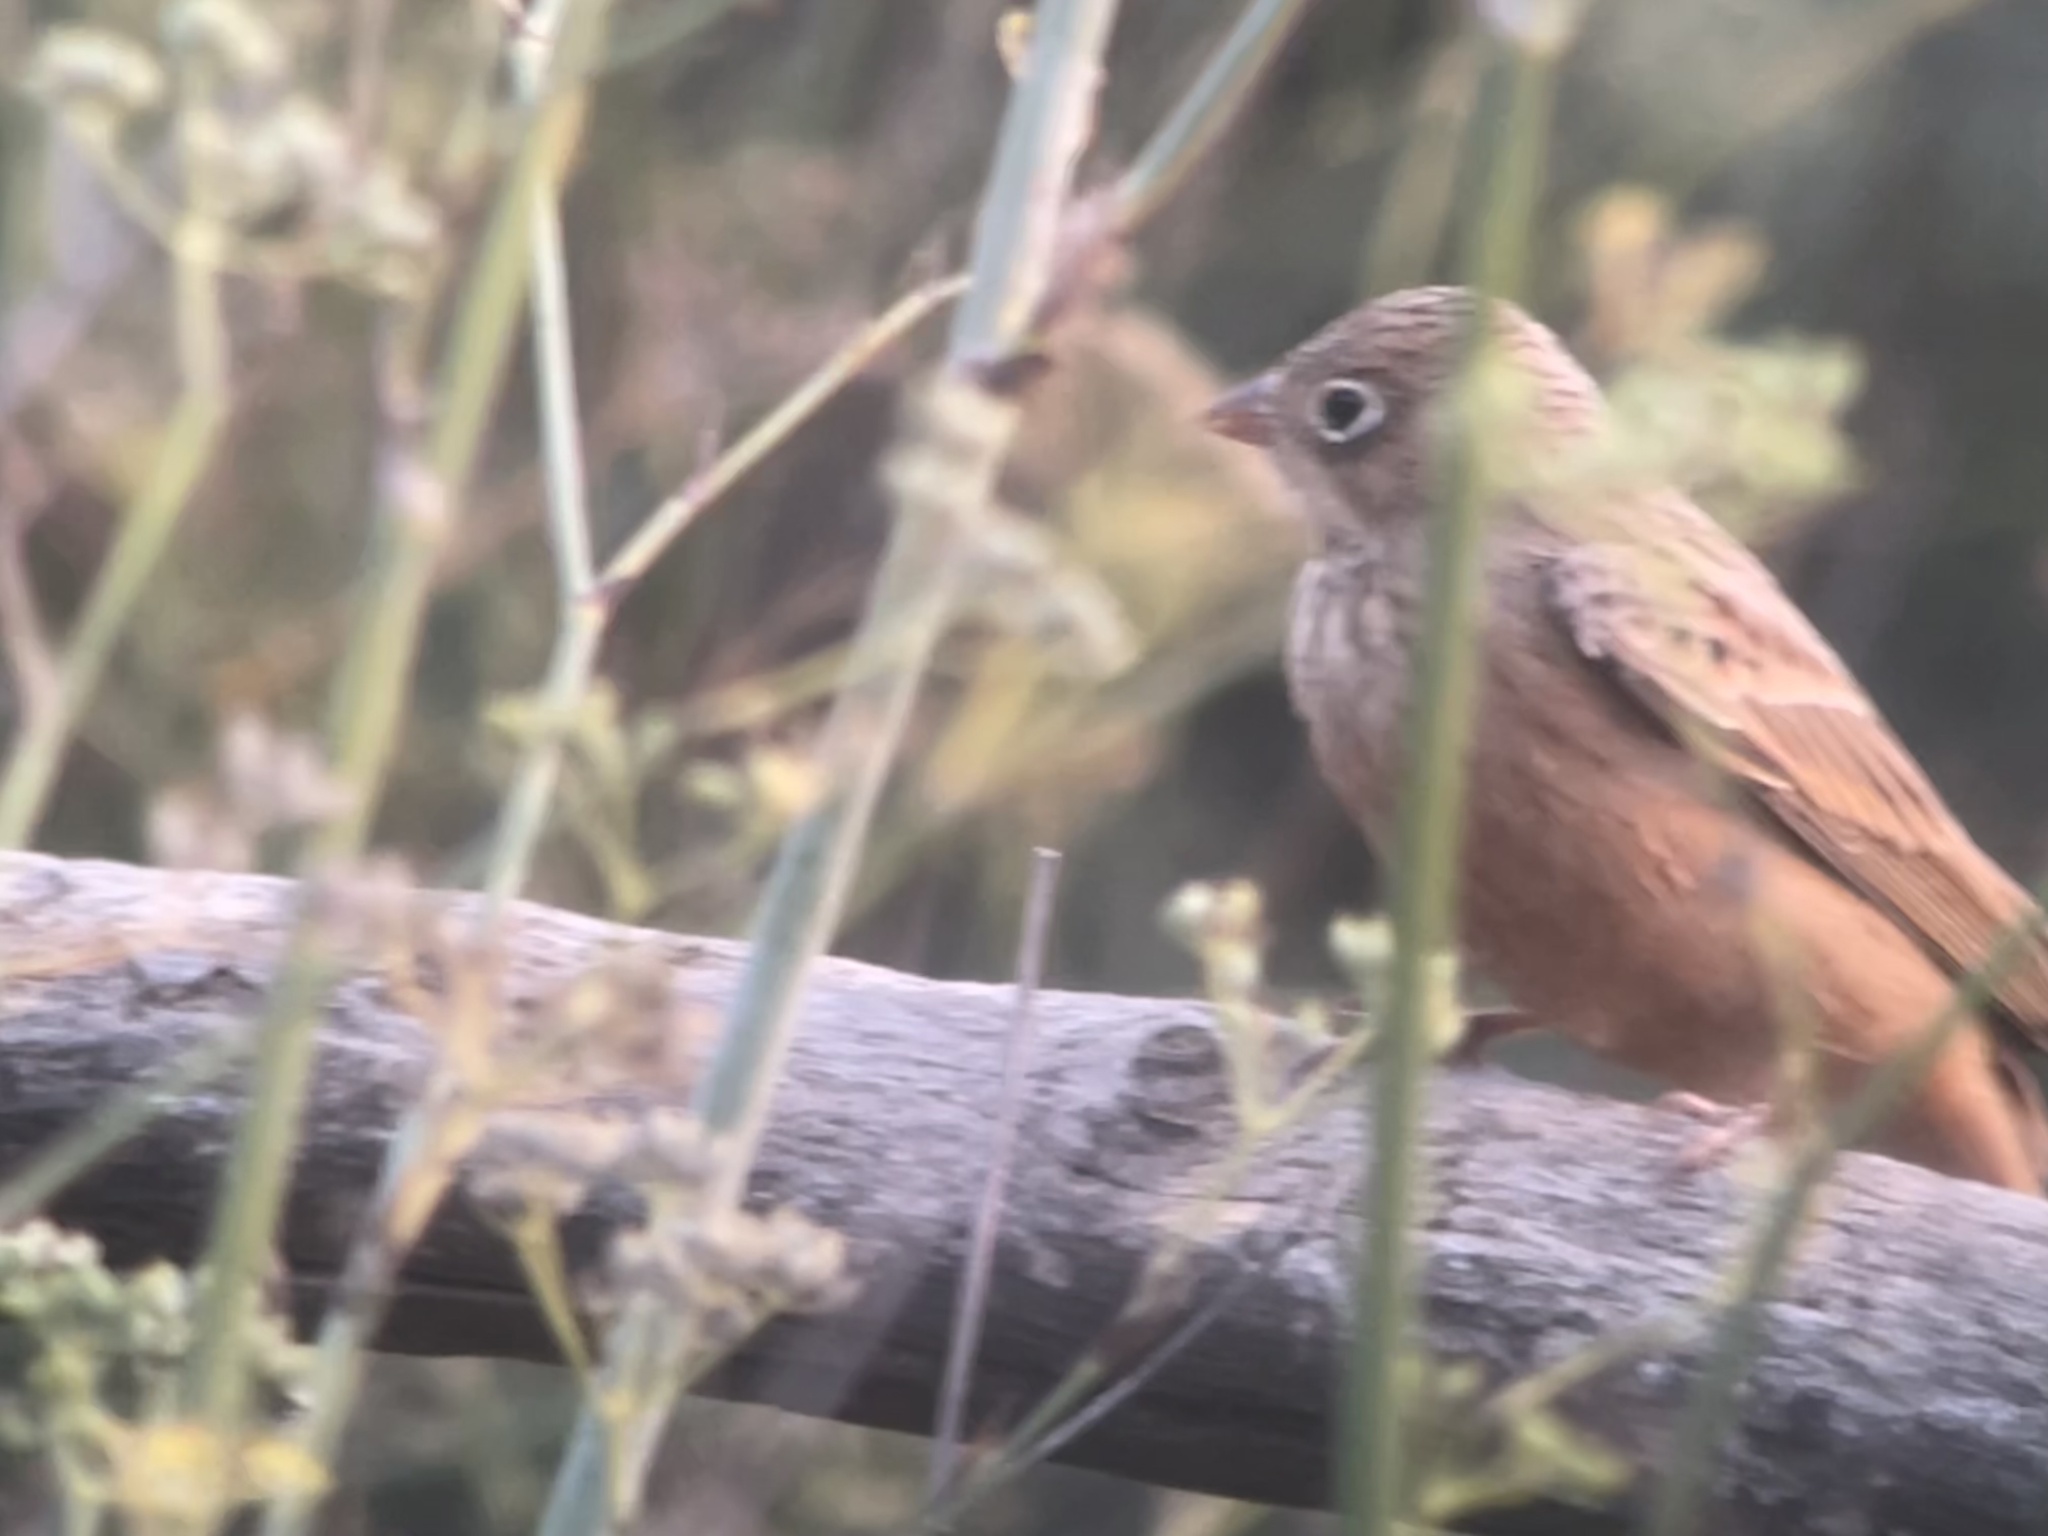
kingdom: Animalia
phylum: Chordata
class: Aves
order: Passeriformes
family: Emberizidae
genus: Emberiza
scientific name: Emberiza caesia
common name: Cretzschmar's bunting
